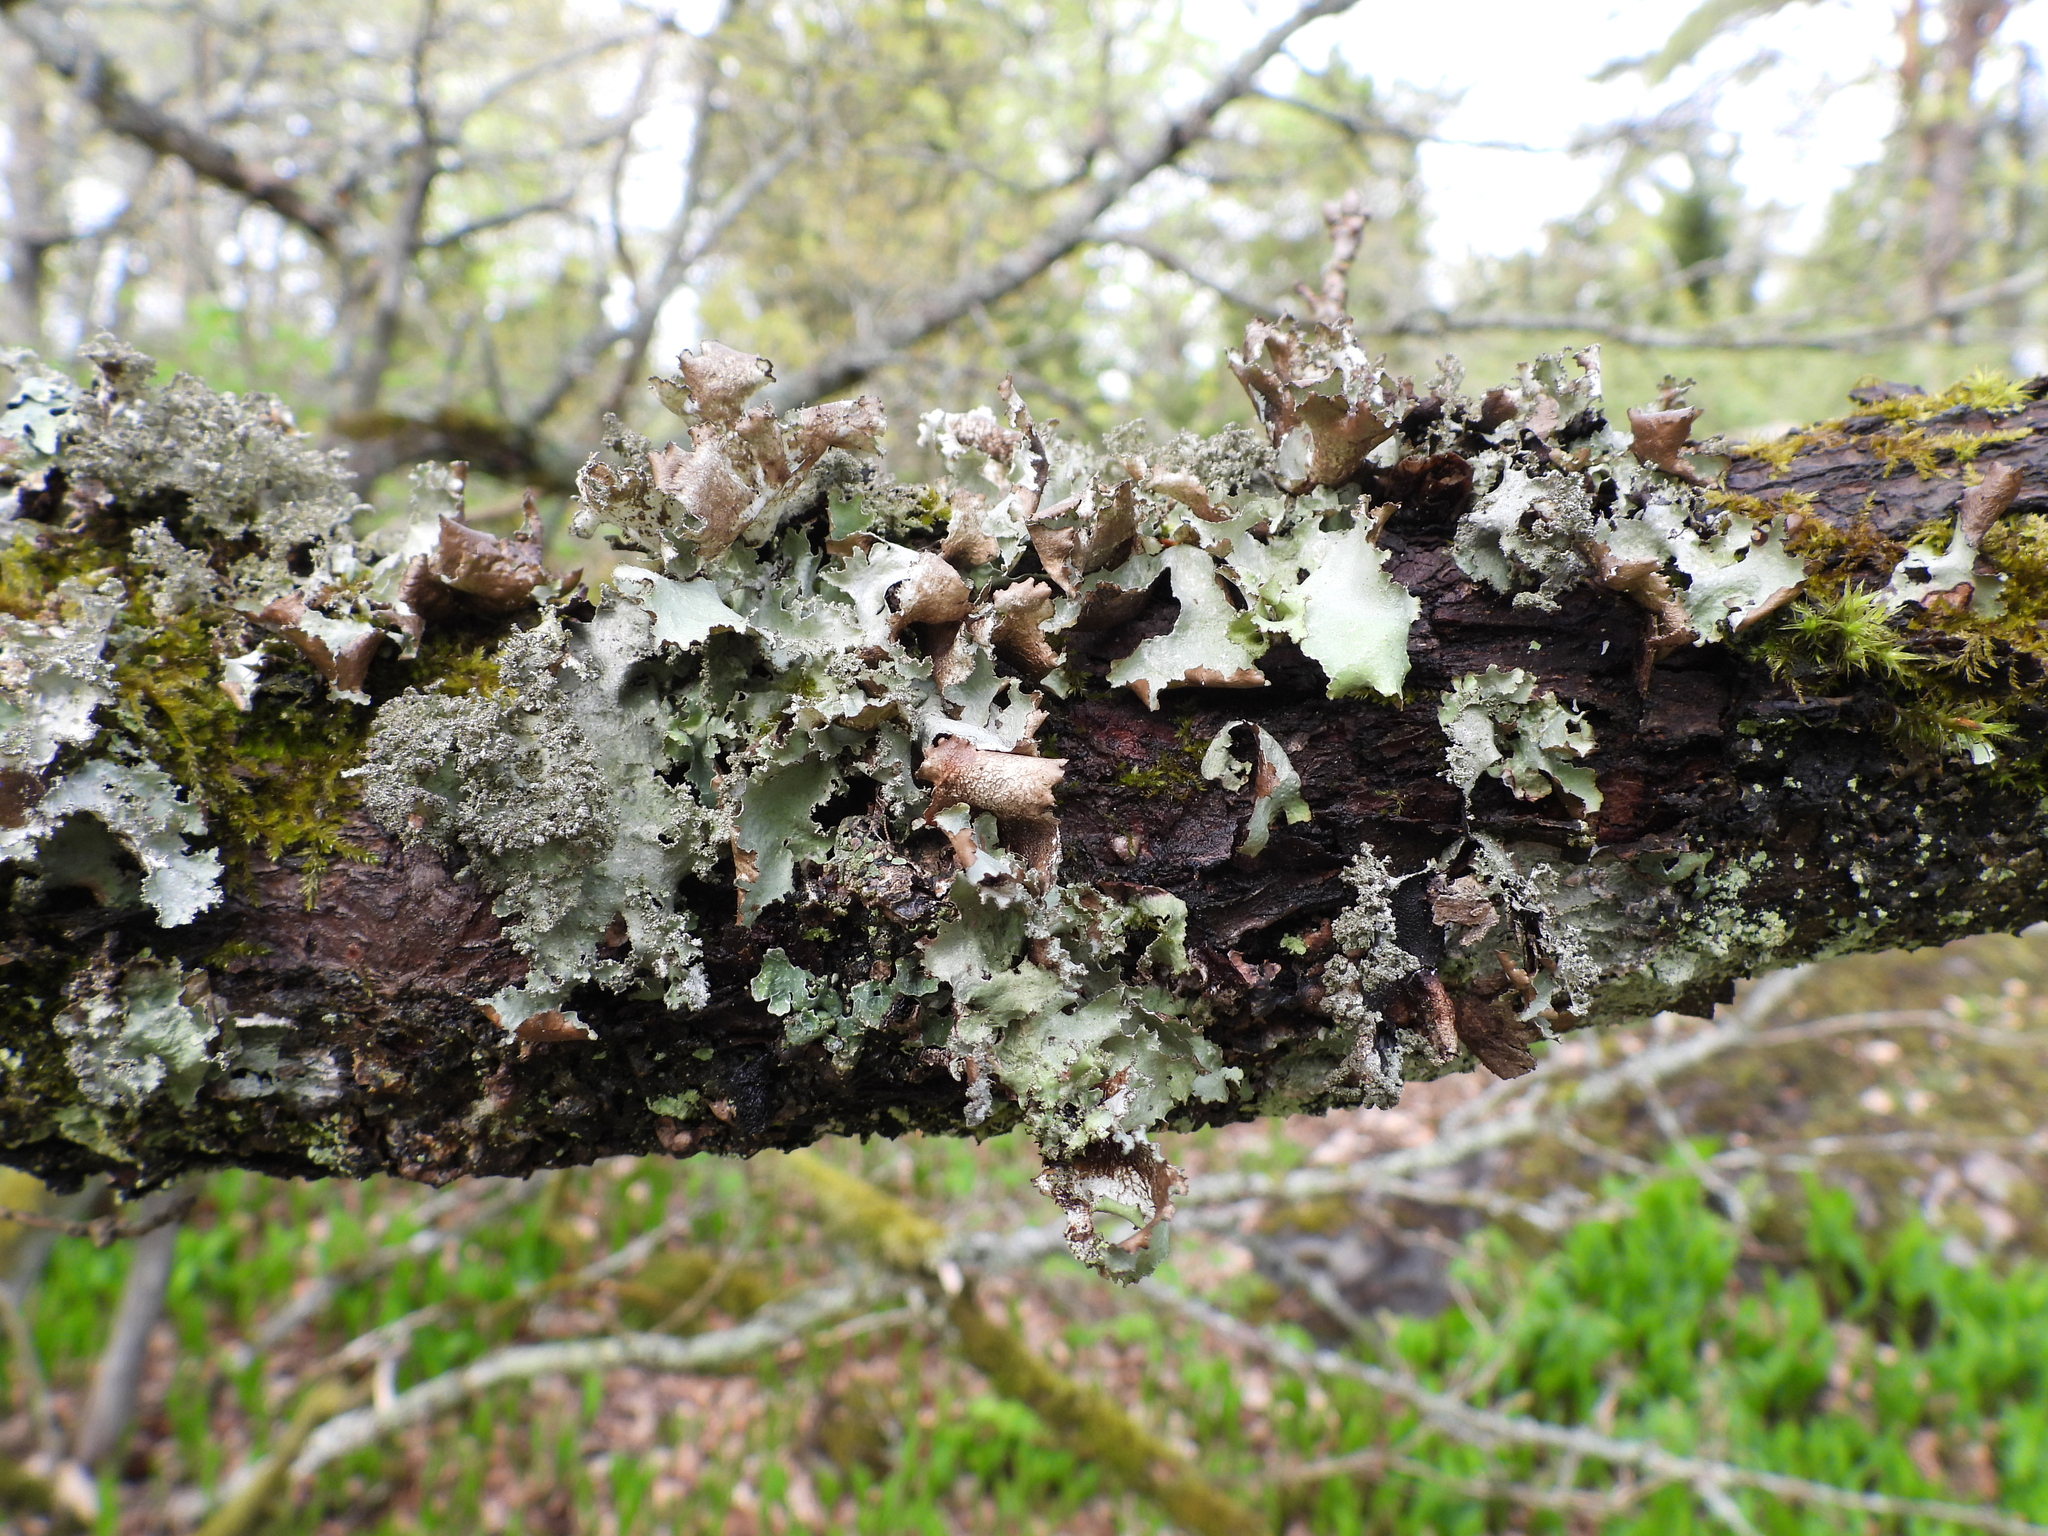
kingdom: Fungi
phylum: Ascomycota
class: Lecanoromycetes
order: Lecanorales
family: Parmeliaceae
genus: Platismatia
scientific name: Platismatia glauca
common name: Varied rag lichen
